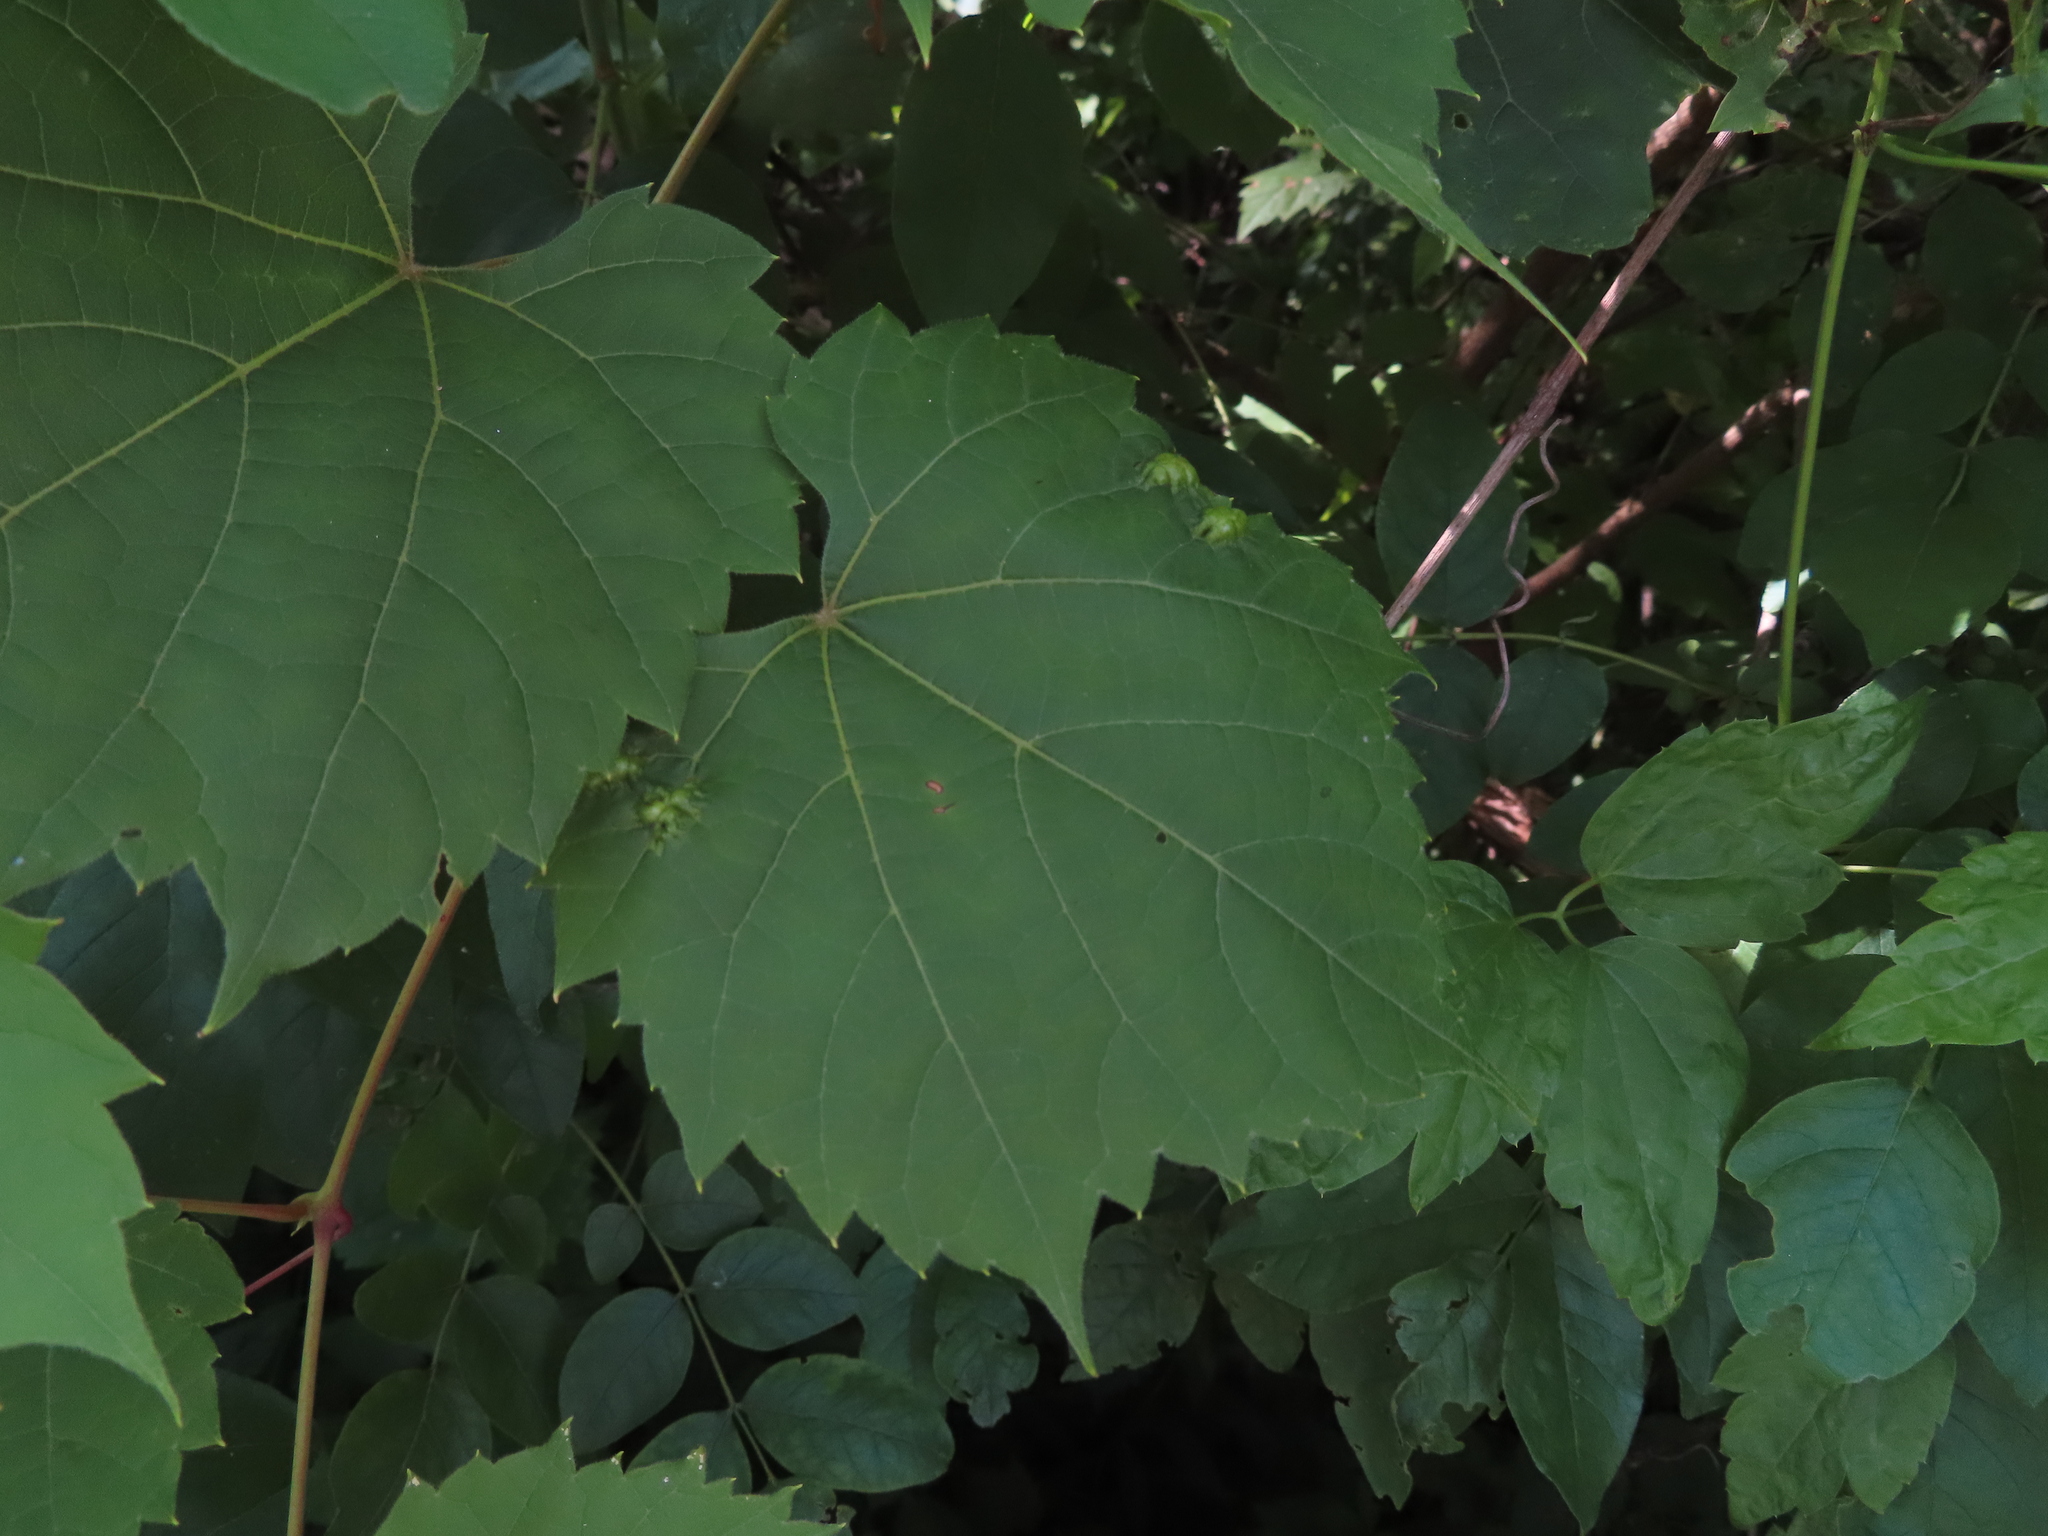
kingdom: Plantae
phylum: Tracheophyta
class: Magnoliopsida
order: Vitales
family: Vitaceae
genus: Vitis
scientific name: Vitis riparia
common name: Frost grape
